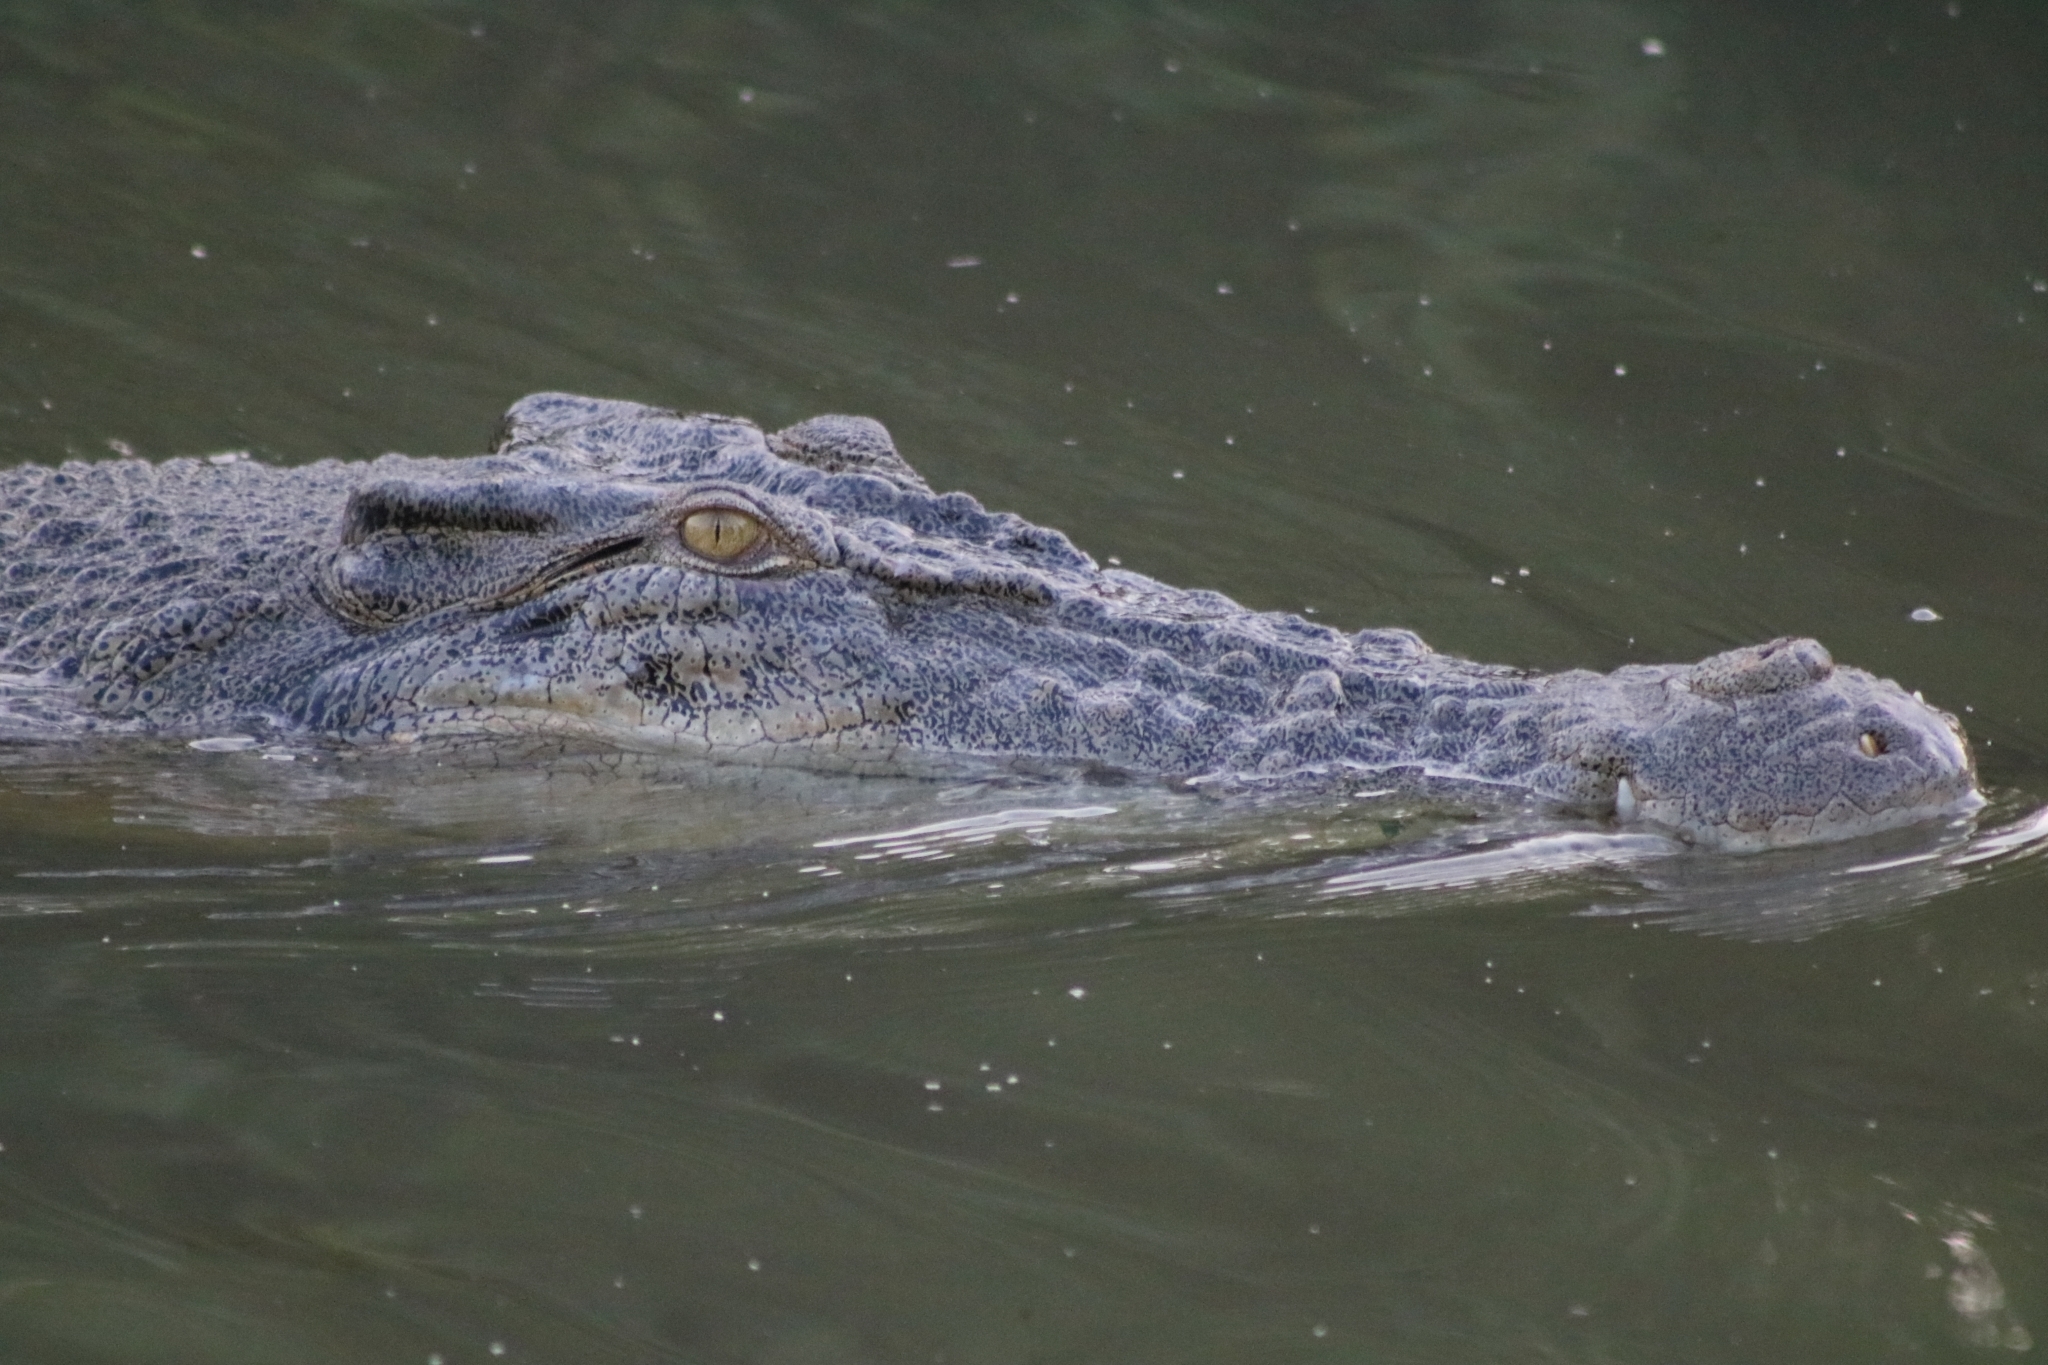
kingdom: Animalia
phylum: Chordata
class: Crocodylia
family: Crocodylidae
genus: Crocodylus
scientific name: Crocodylus porosus
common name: Saltwater crocodile
